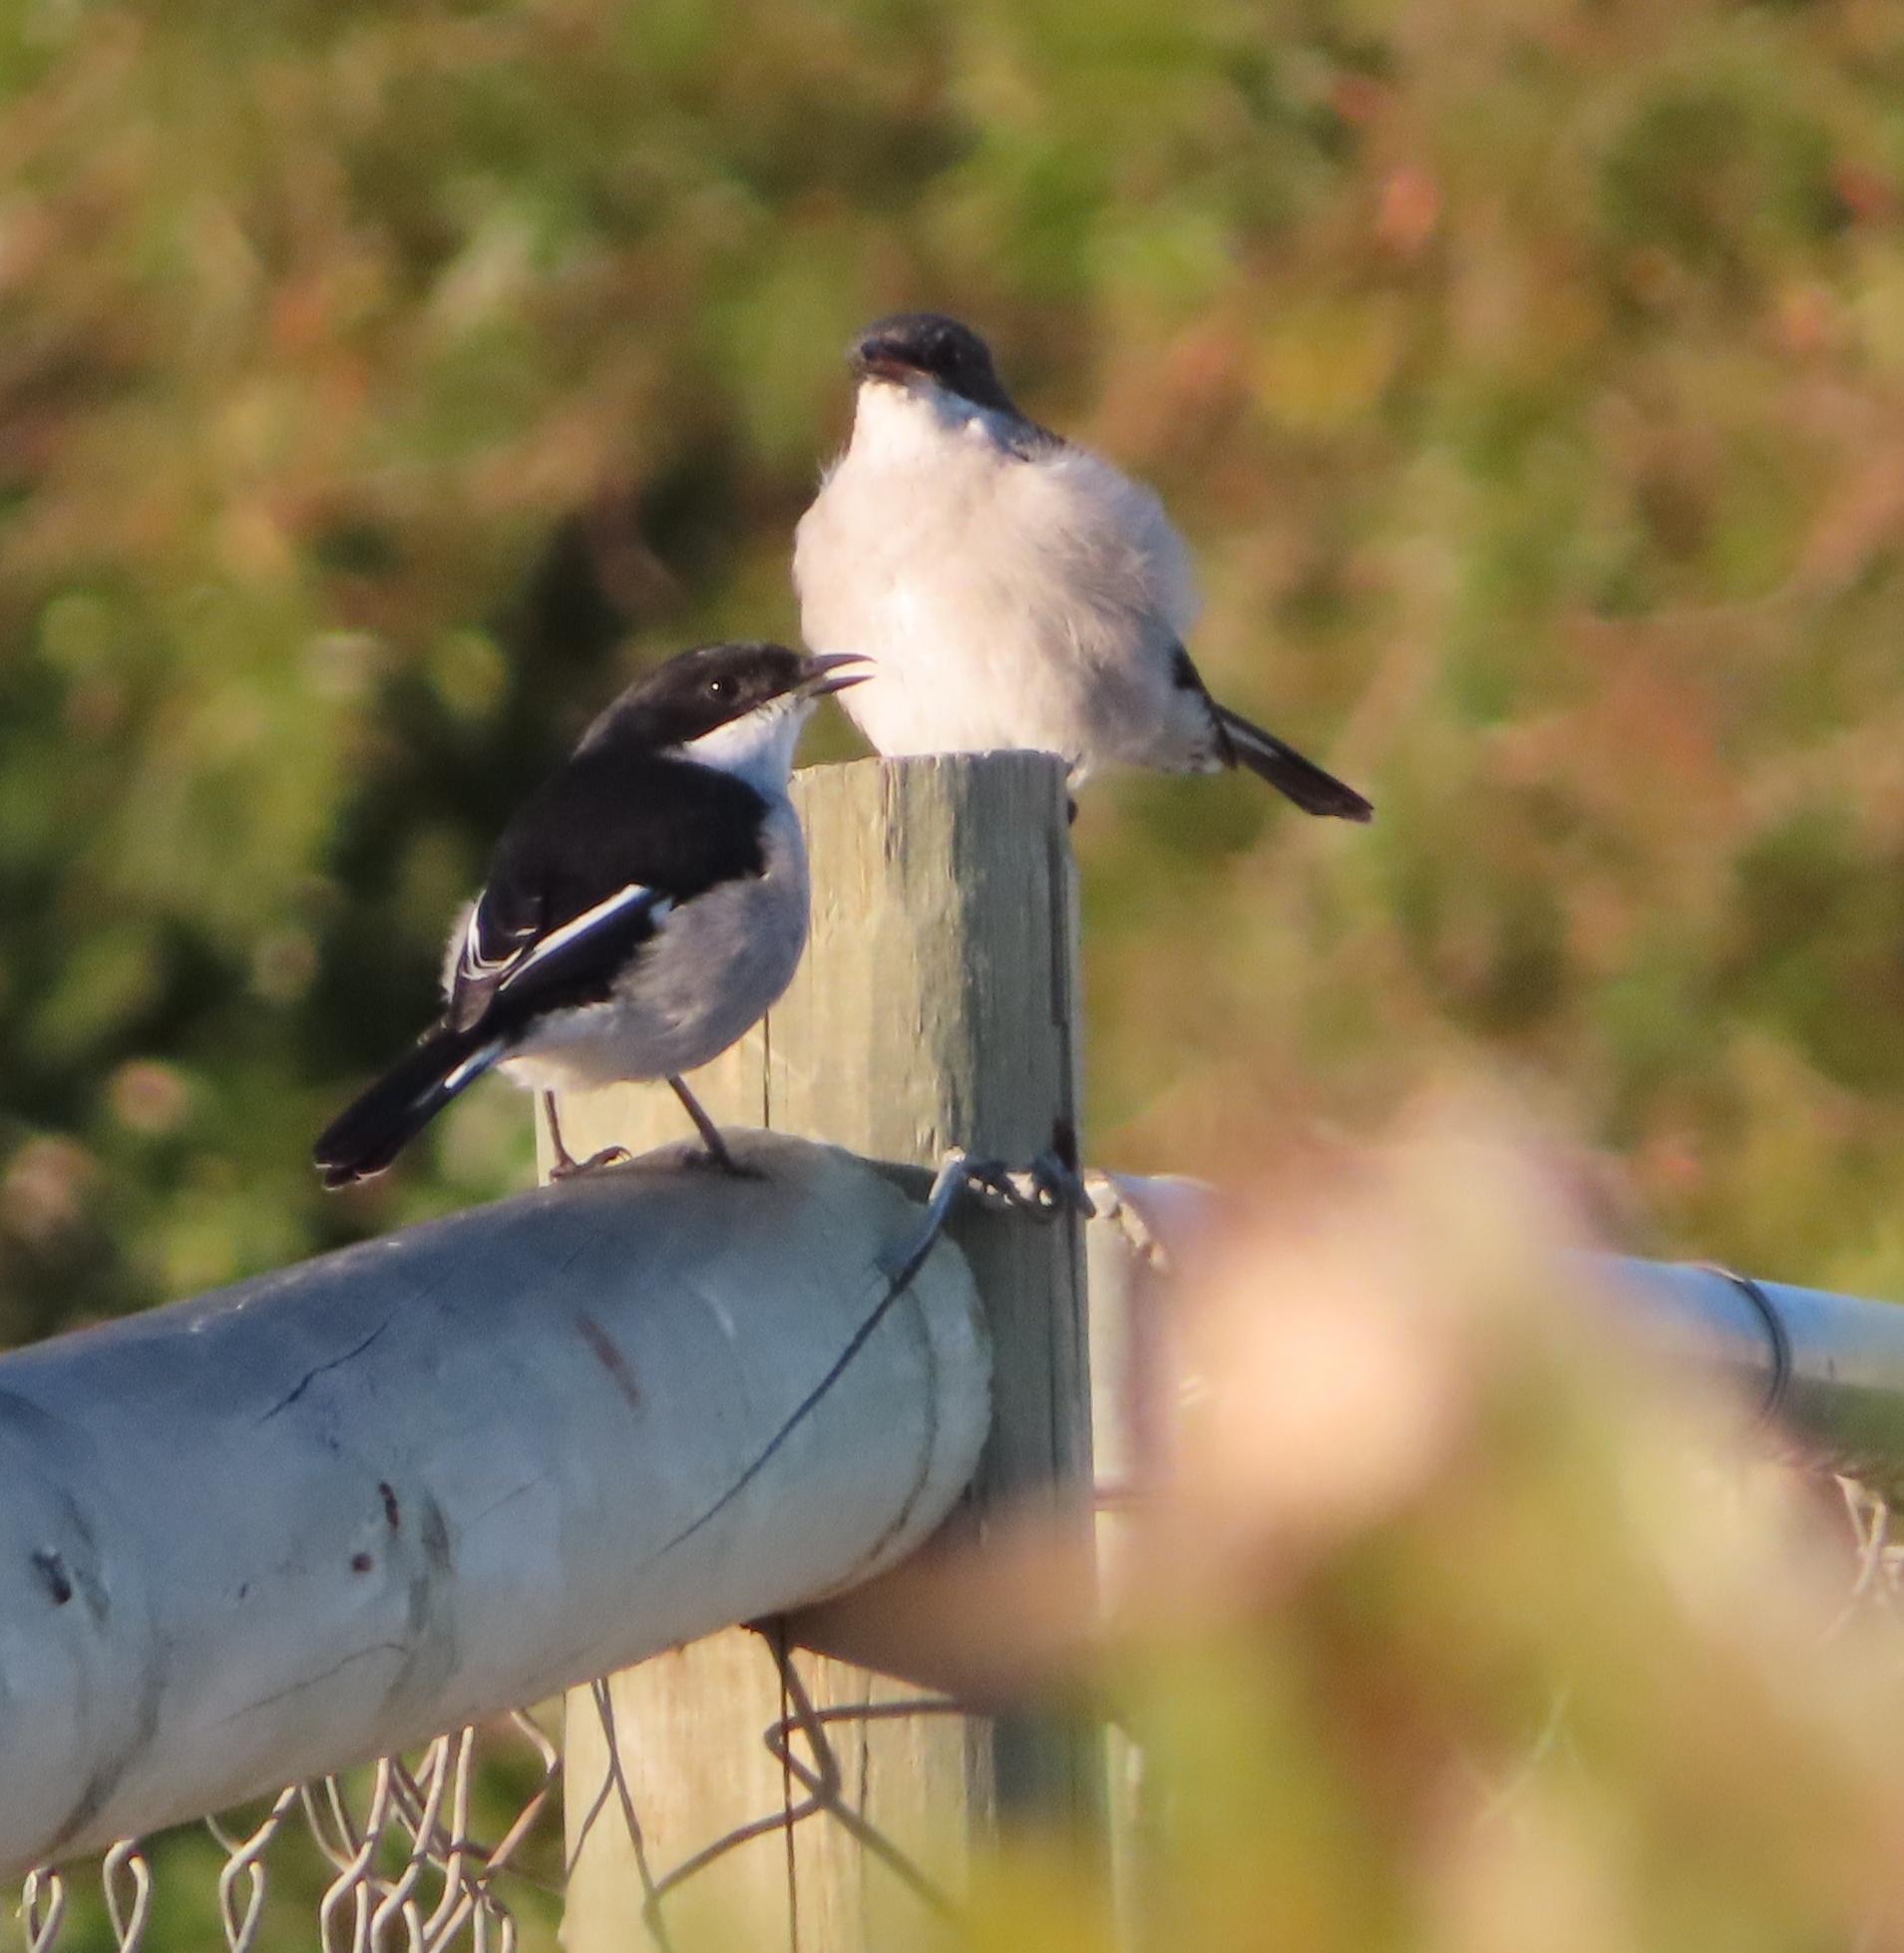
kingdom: Animalia
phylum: Chordata
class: Aves
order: Passeriformes
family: Muscicapidae
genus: Sigelus
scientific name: Sigelus silens
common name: Fiscal flycatcher
